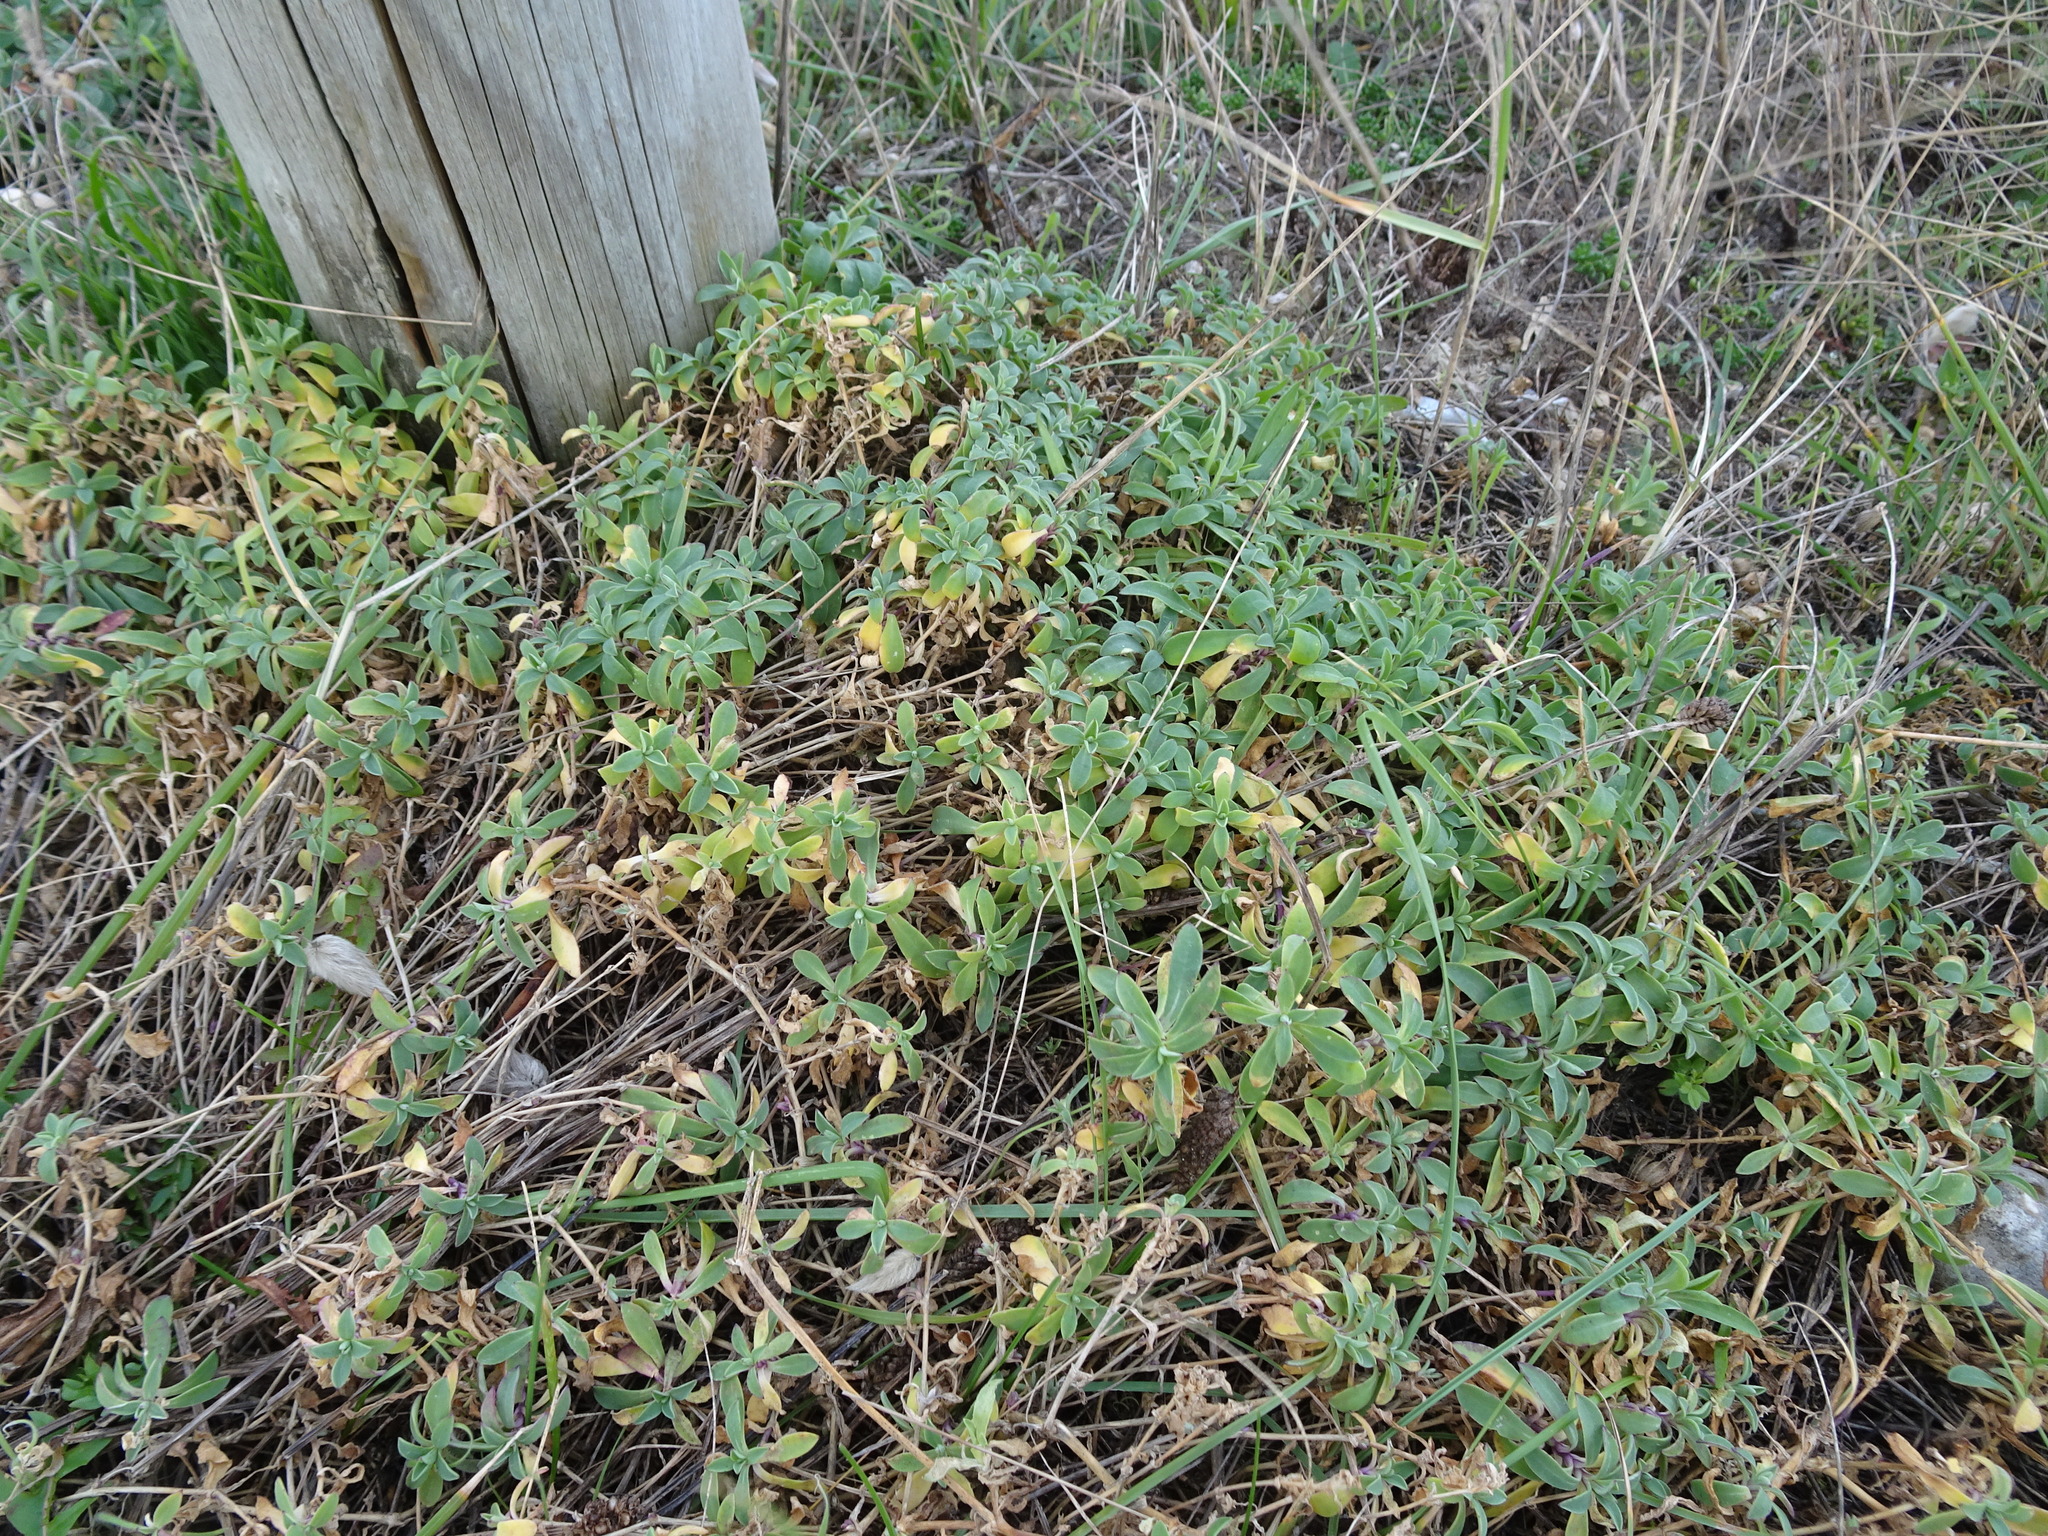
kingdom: Plantae
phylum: Tracheophyta
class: Magnoliopsida
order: Caryophyllales
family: Caryophyllaceae
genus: Silene
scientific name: Silene uniflora
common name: Sea campion
